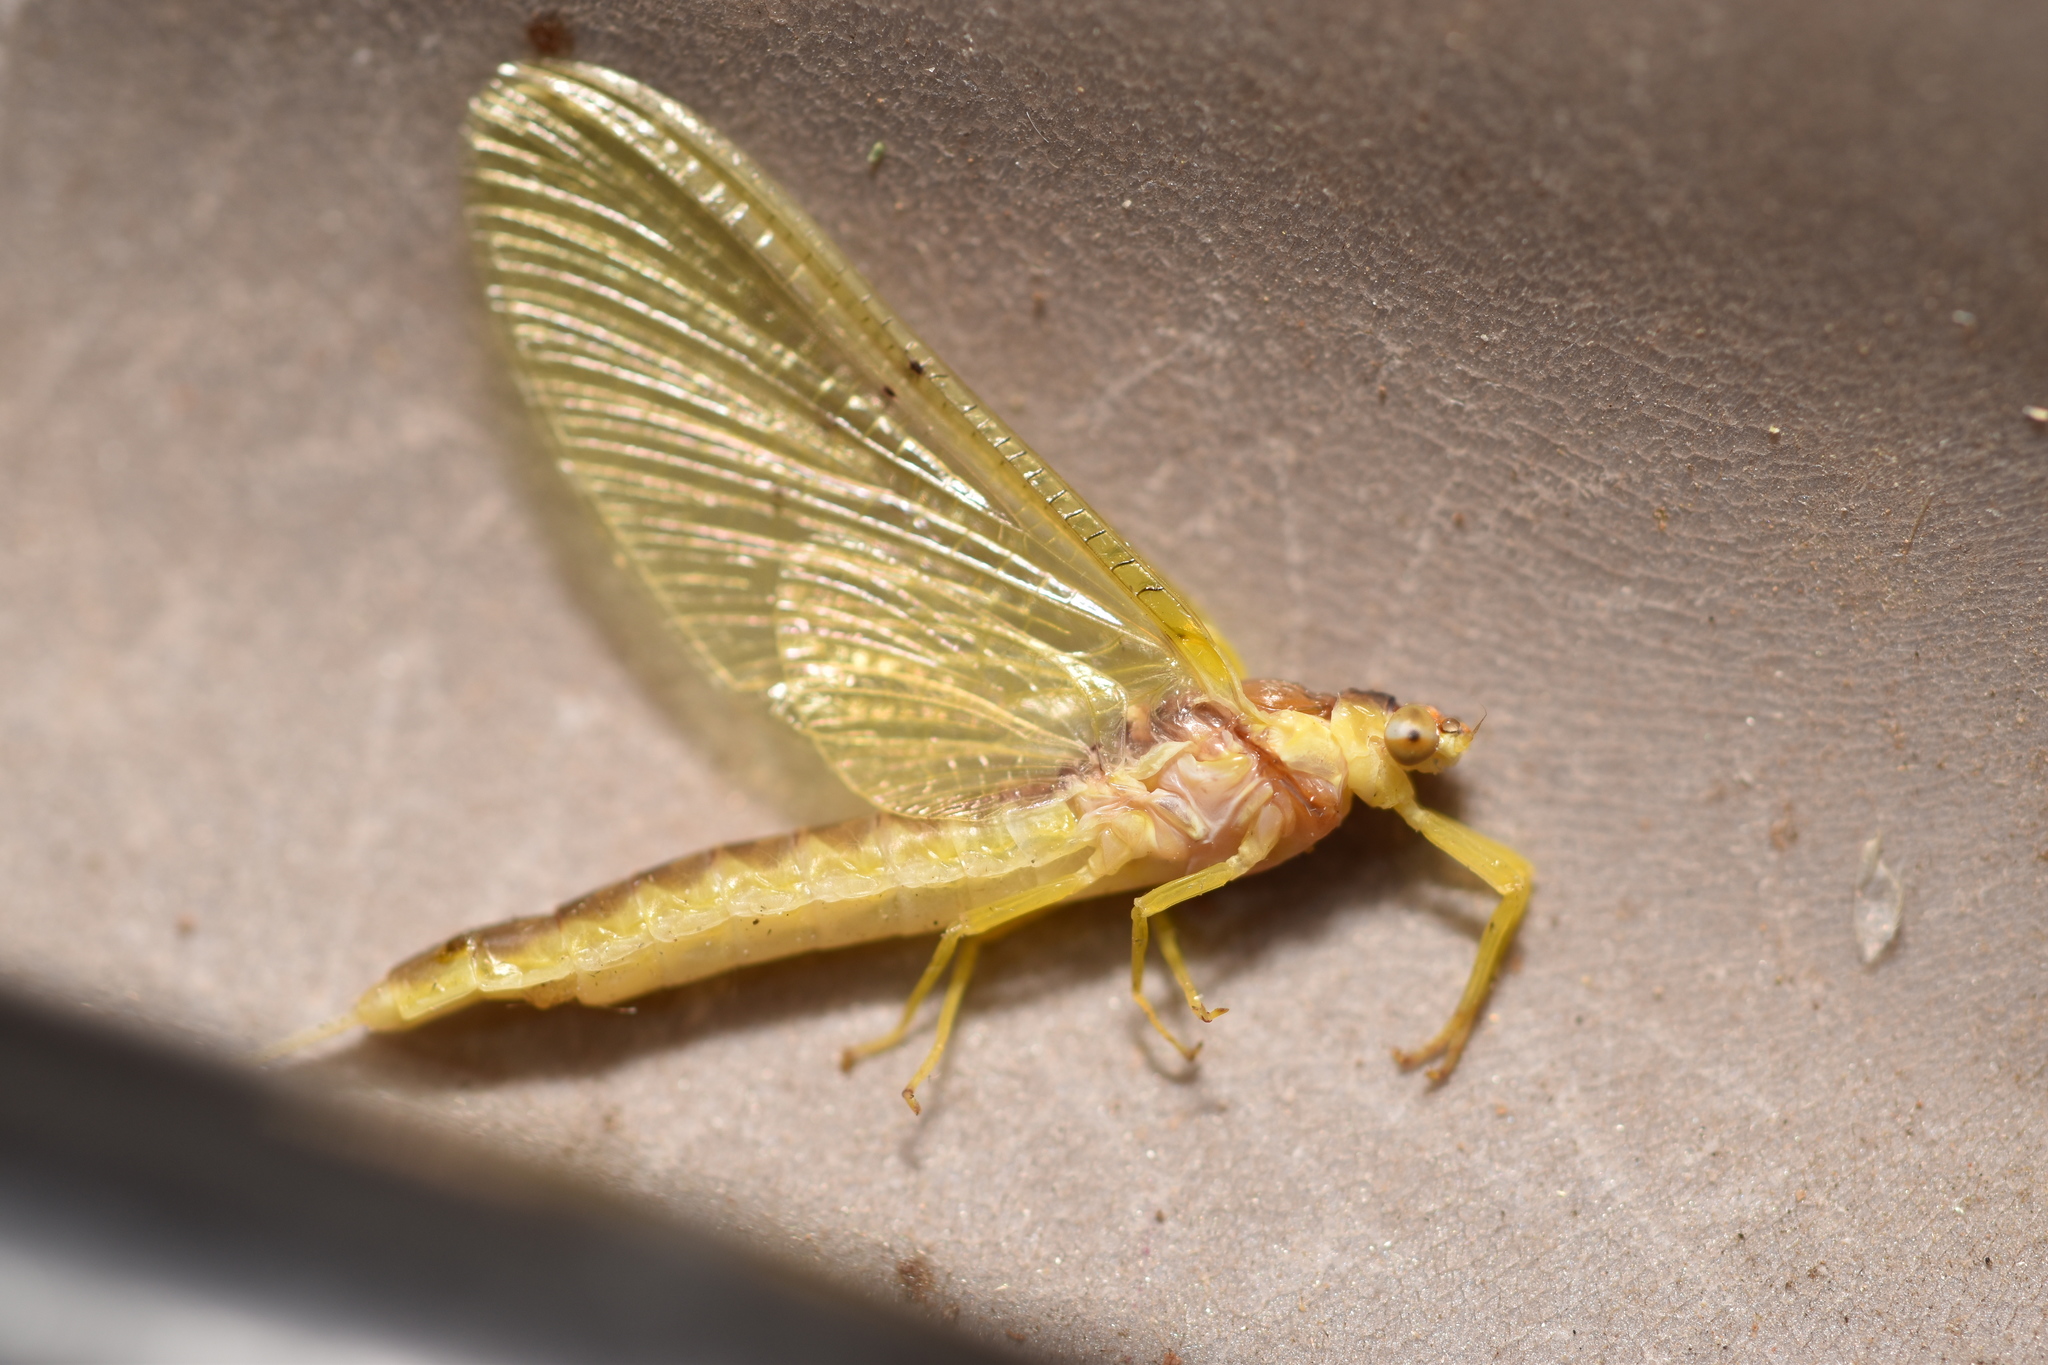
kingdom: Animalia
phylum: Arthropoda
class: Insecta
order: Ephemeroptera
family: Ephemeridae
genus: Pentagenia
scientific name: Pentagenia vittigera
